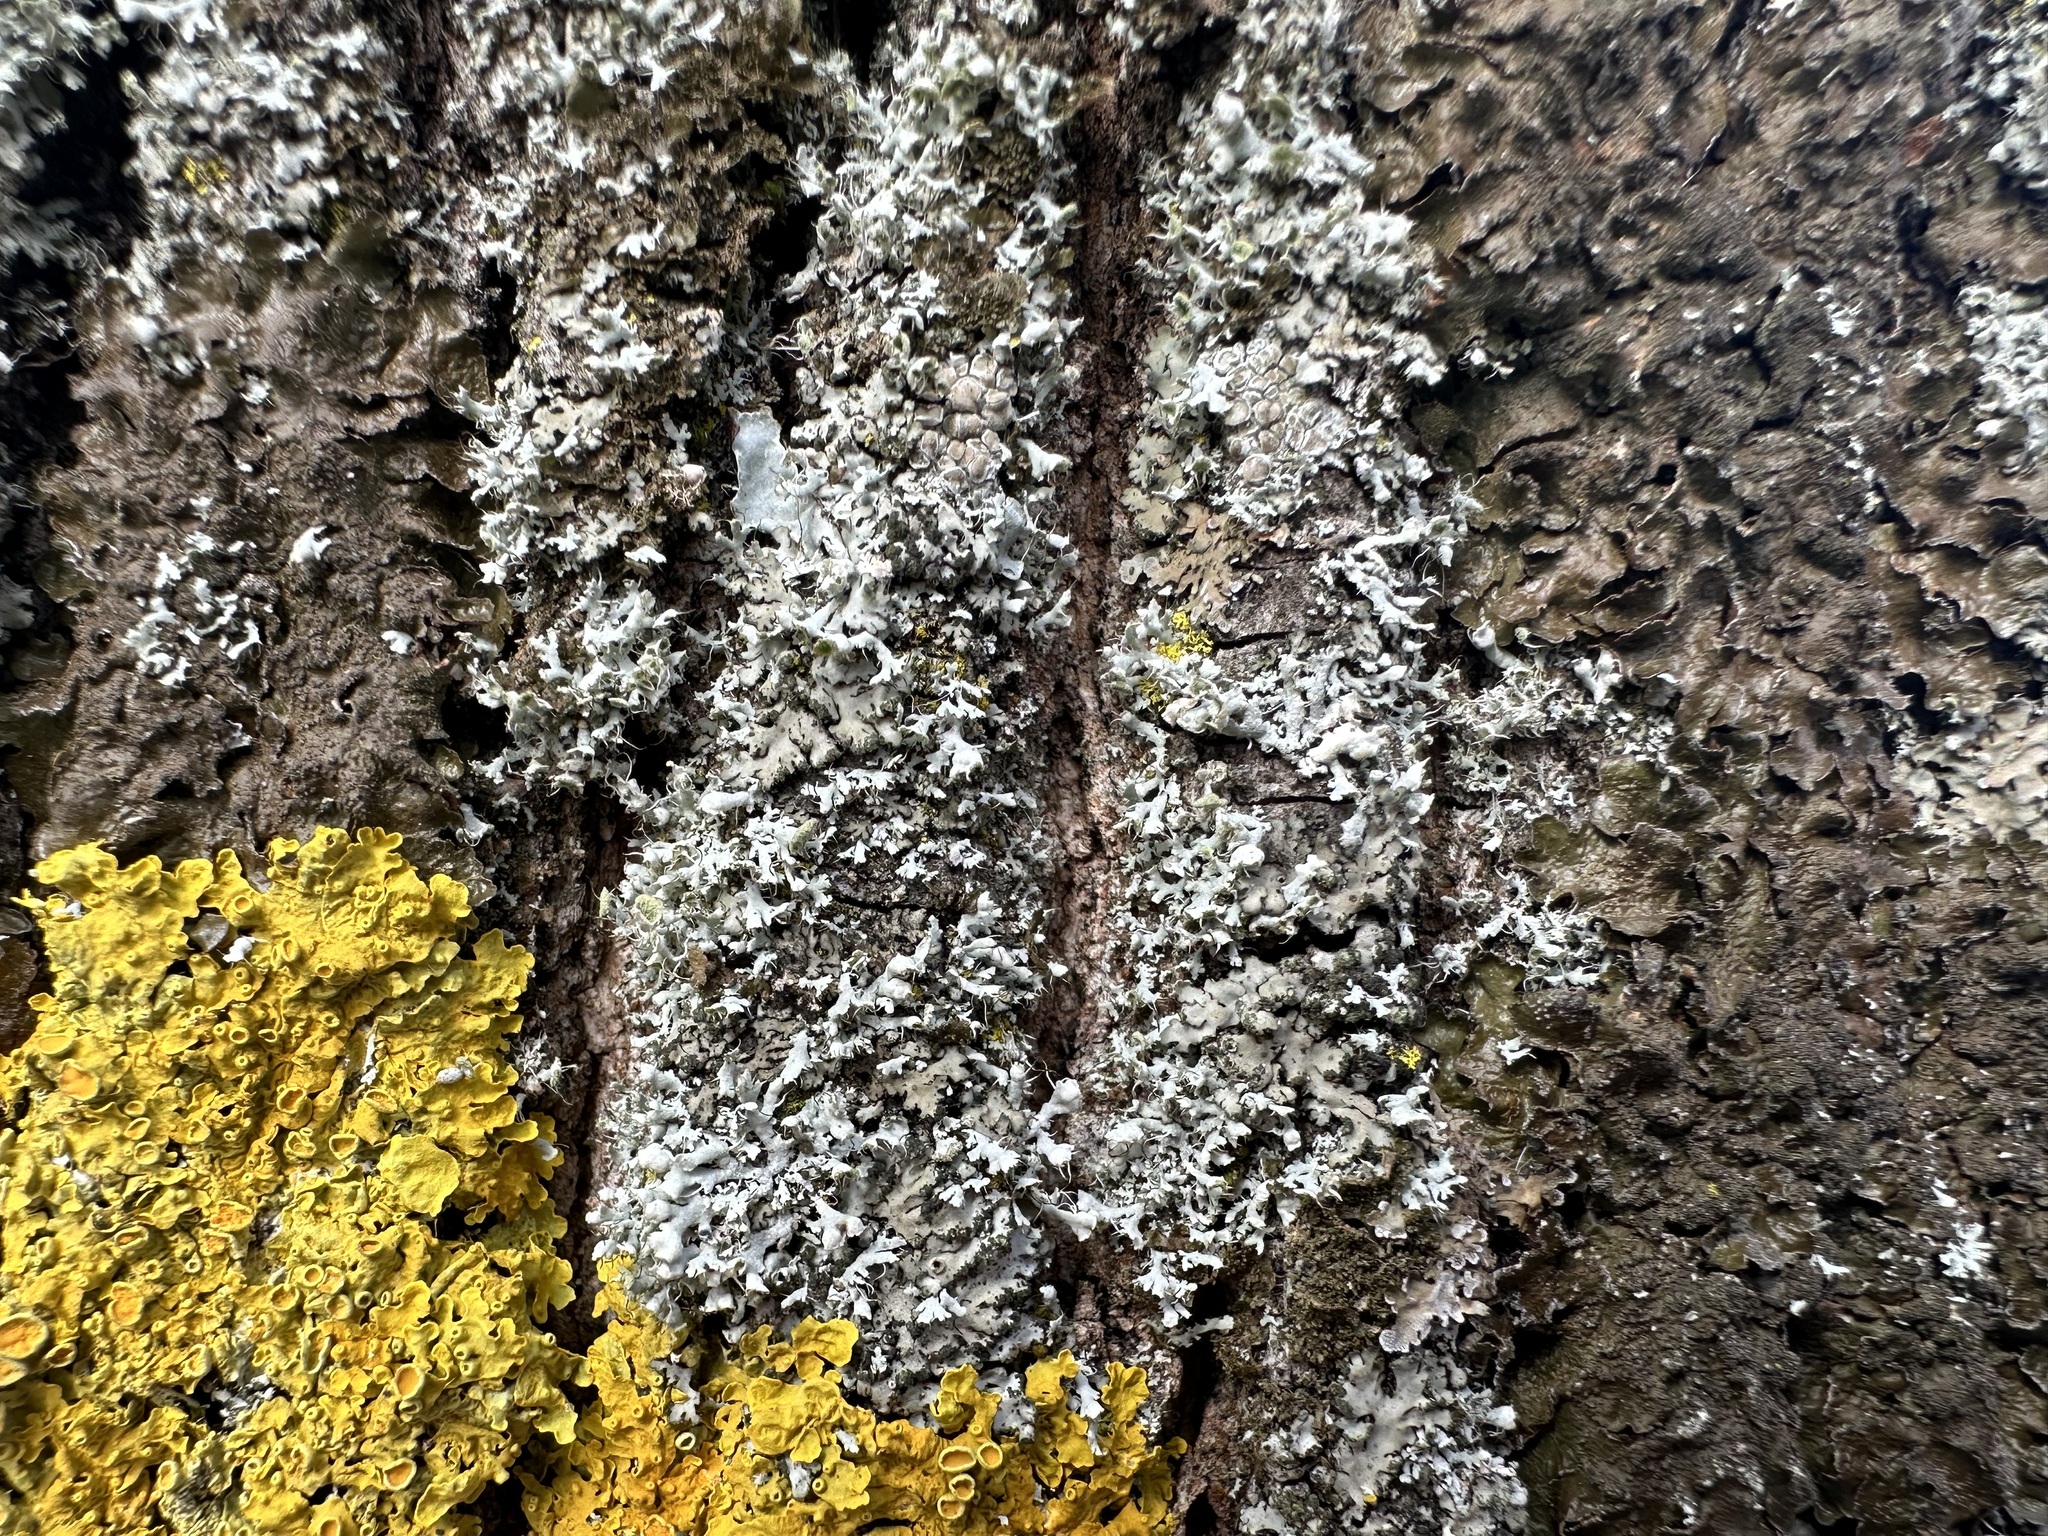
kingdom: Fungi
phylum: Ascomycota
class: Lecanoromycetes
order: Caliciales
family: Physciaceae
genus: Physcia
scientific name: Physcia adscendens
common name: Hooded rosette lichen
